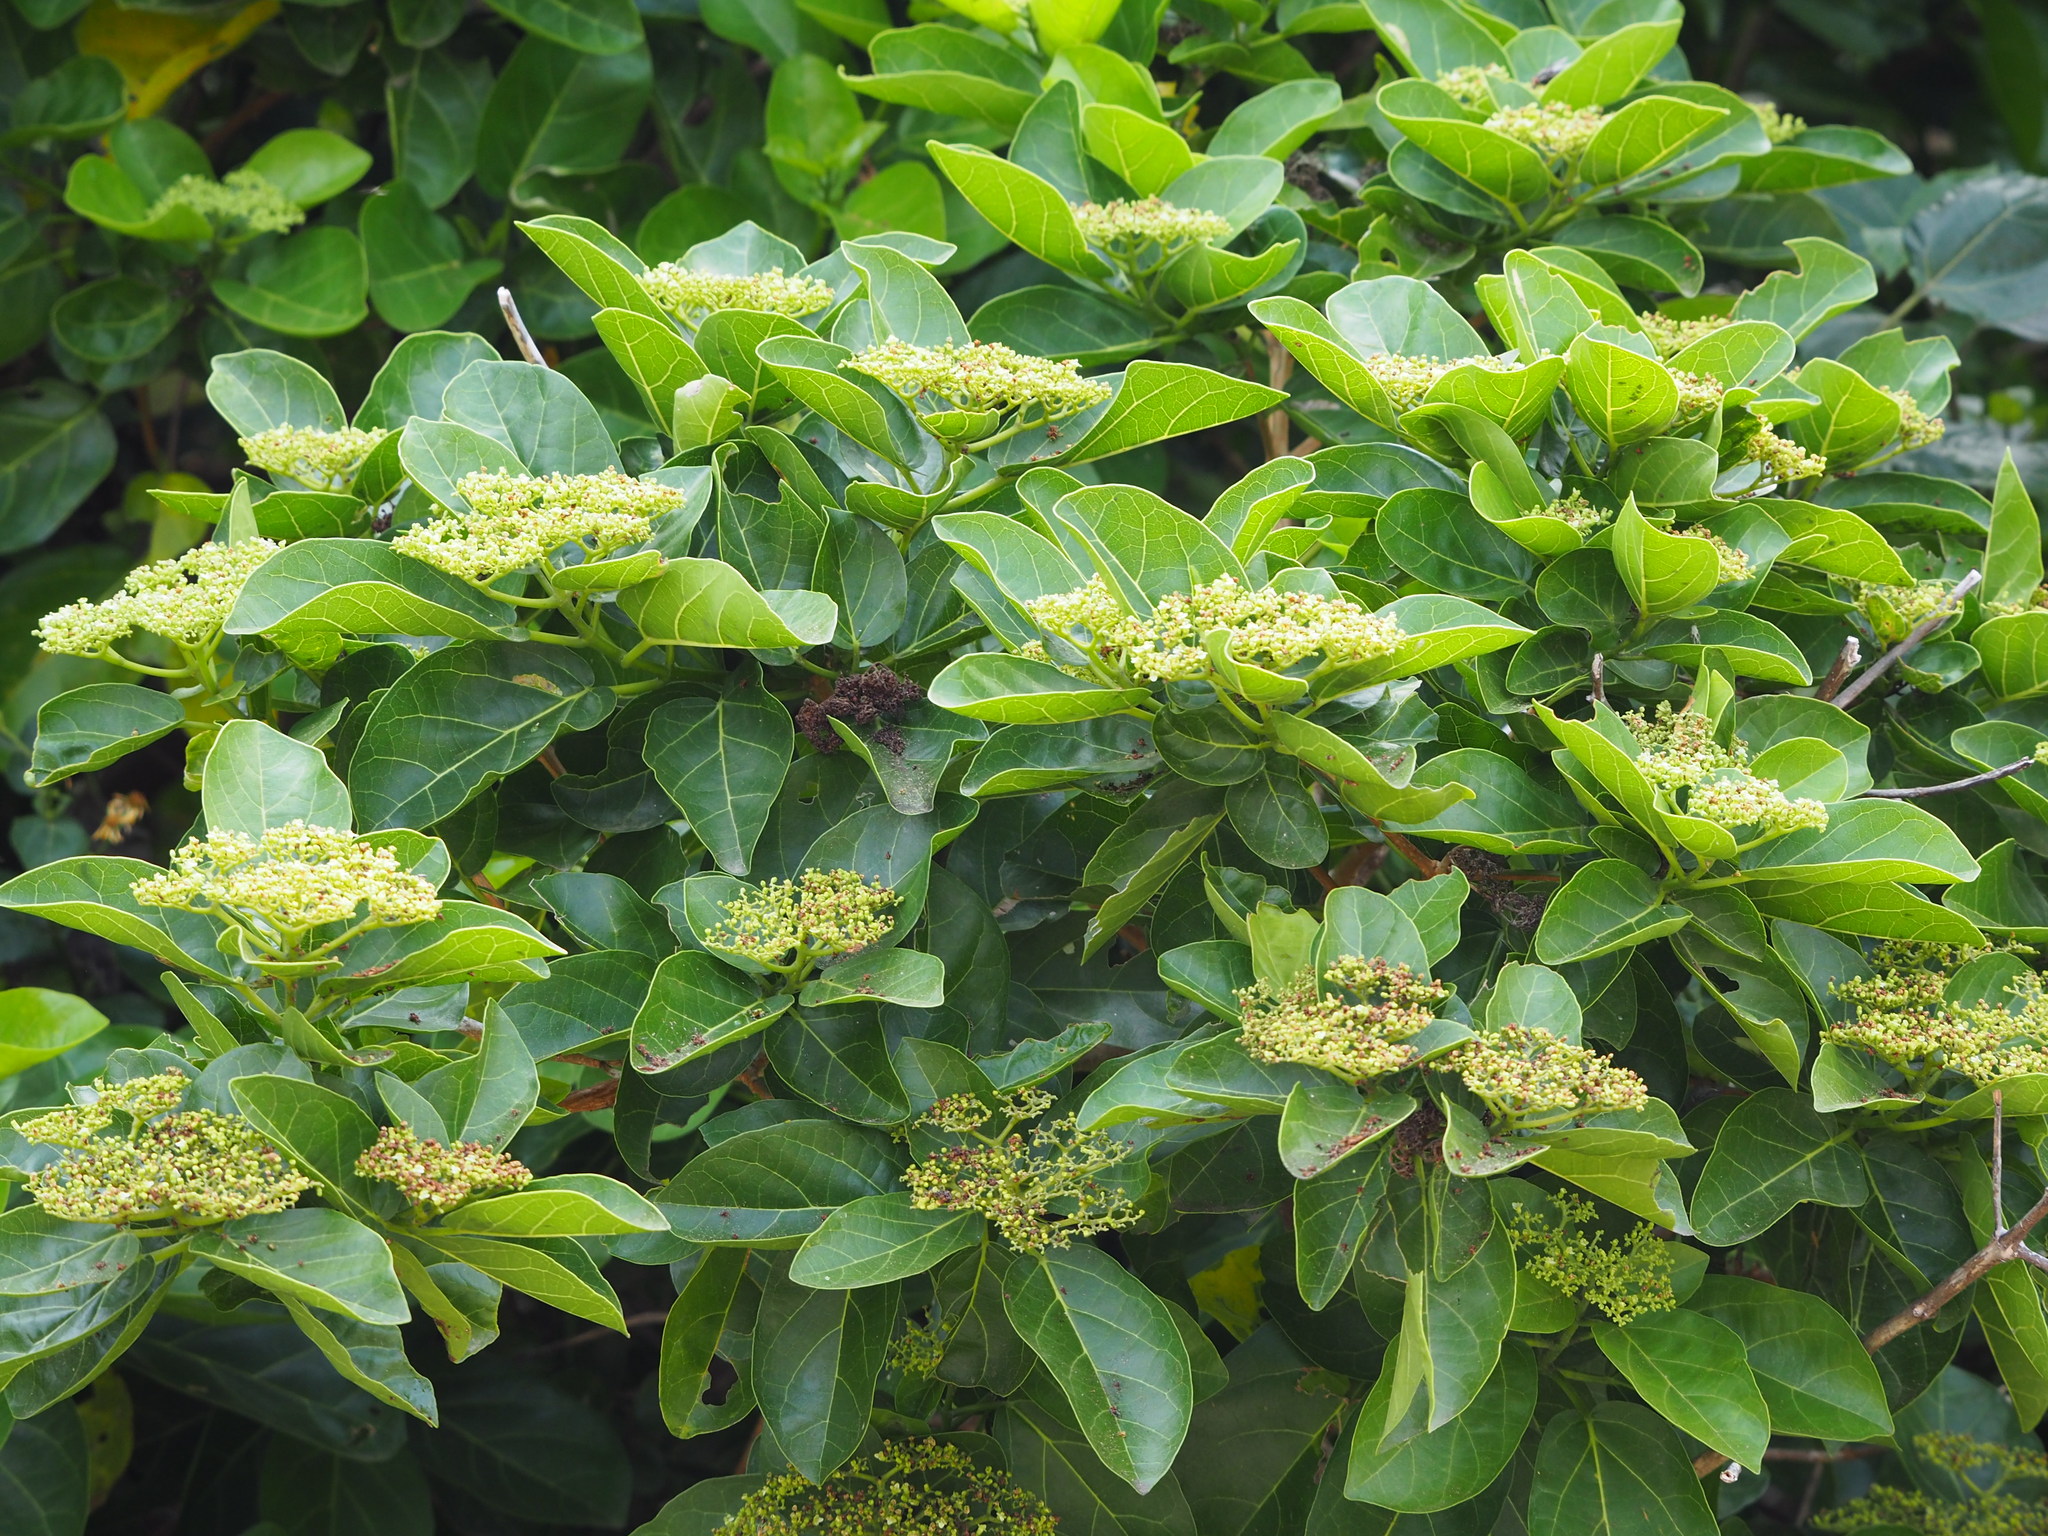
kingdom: Plantae
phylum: Tracheophyta
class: Magnoliopsida
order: Lamiales
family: Lamiaceae
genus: Premna
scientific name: Premna serratifolia
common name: Bastard guelder
